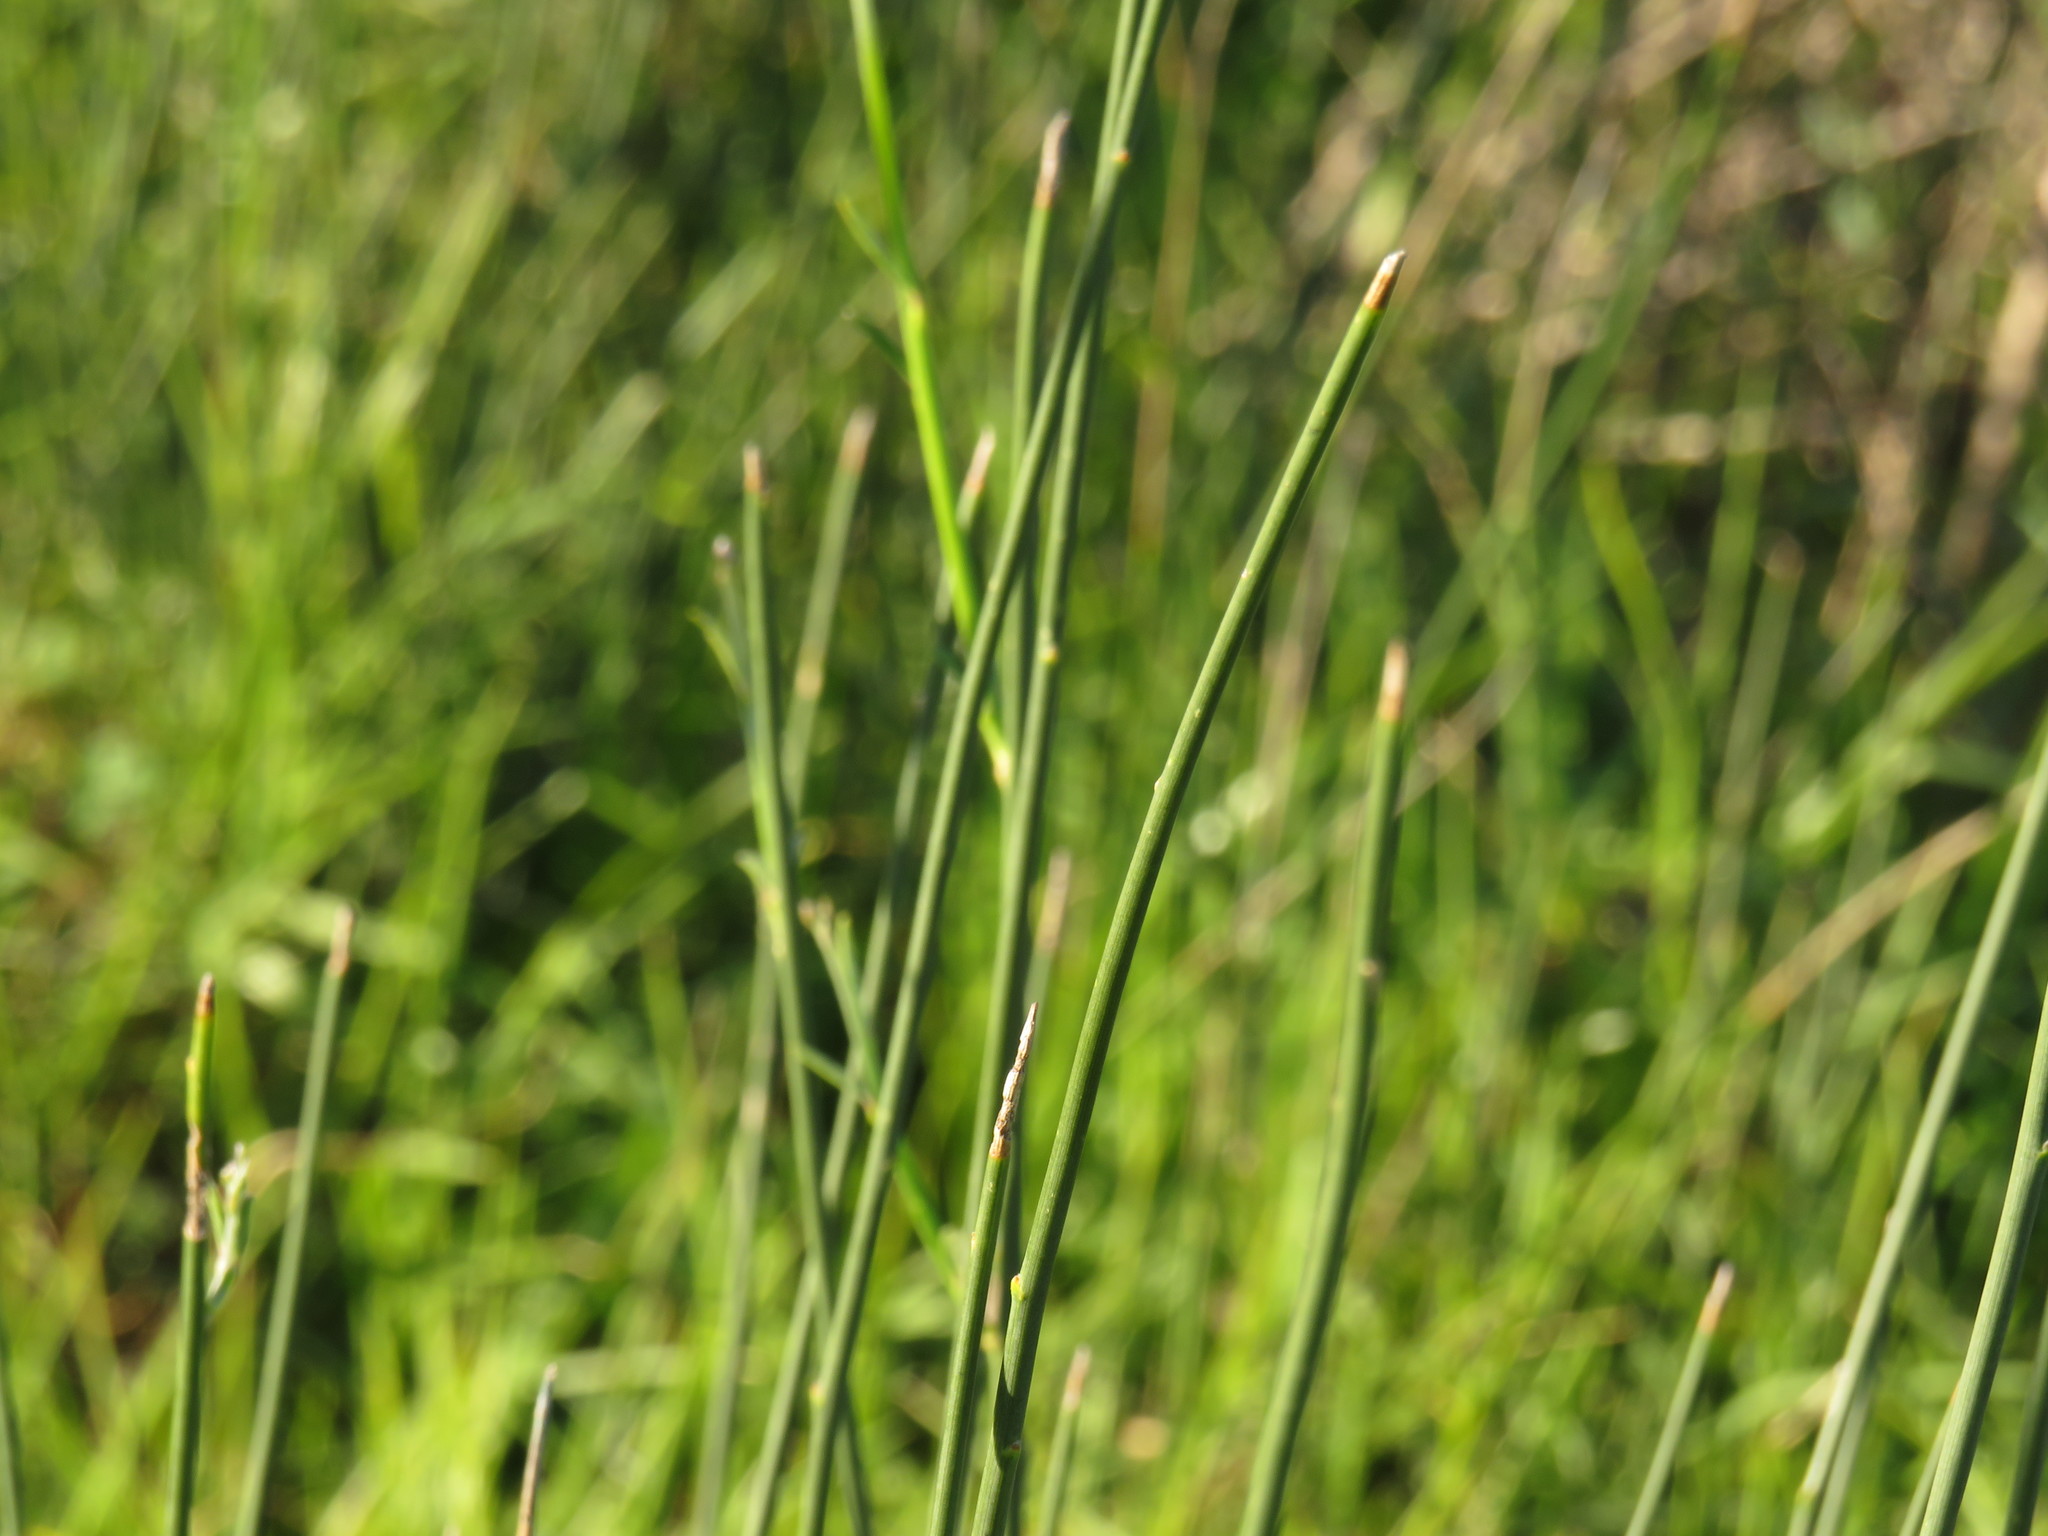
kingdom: Plantae
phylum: Tracheophyta
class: Magnoliopsida
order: Fabales
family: Fabaceae
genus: Spartium
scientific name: Spartium junceum
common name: Spanish broom
